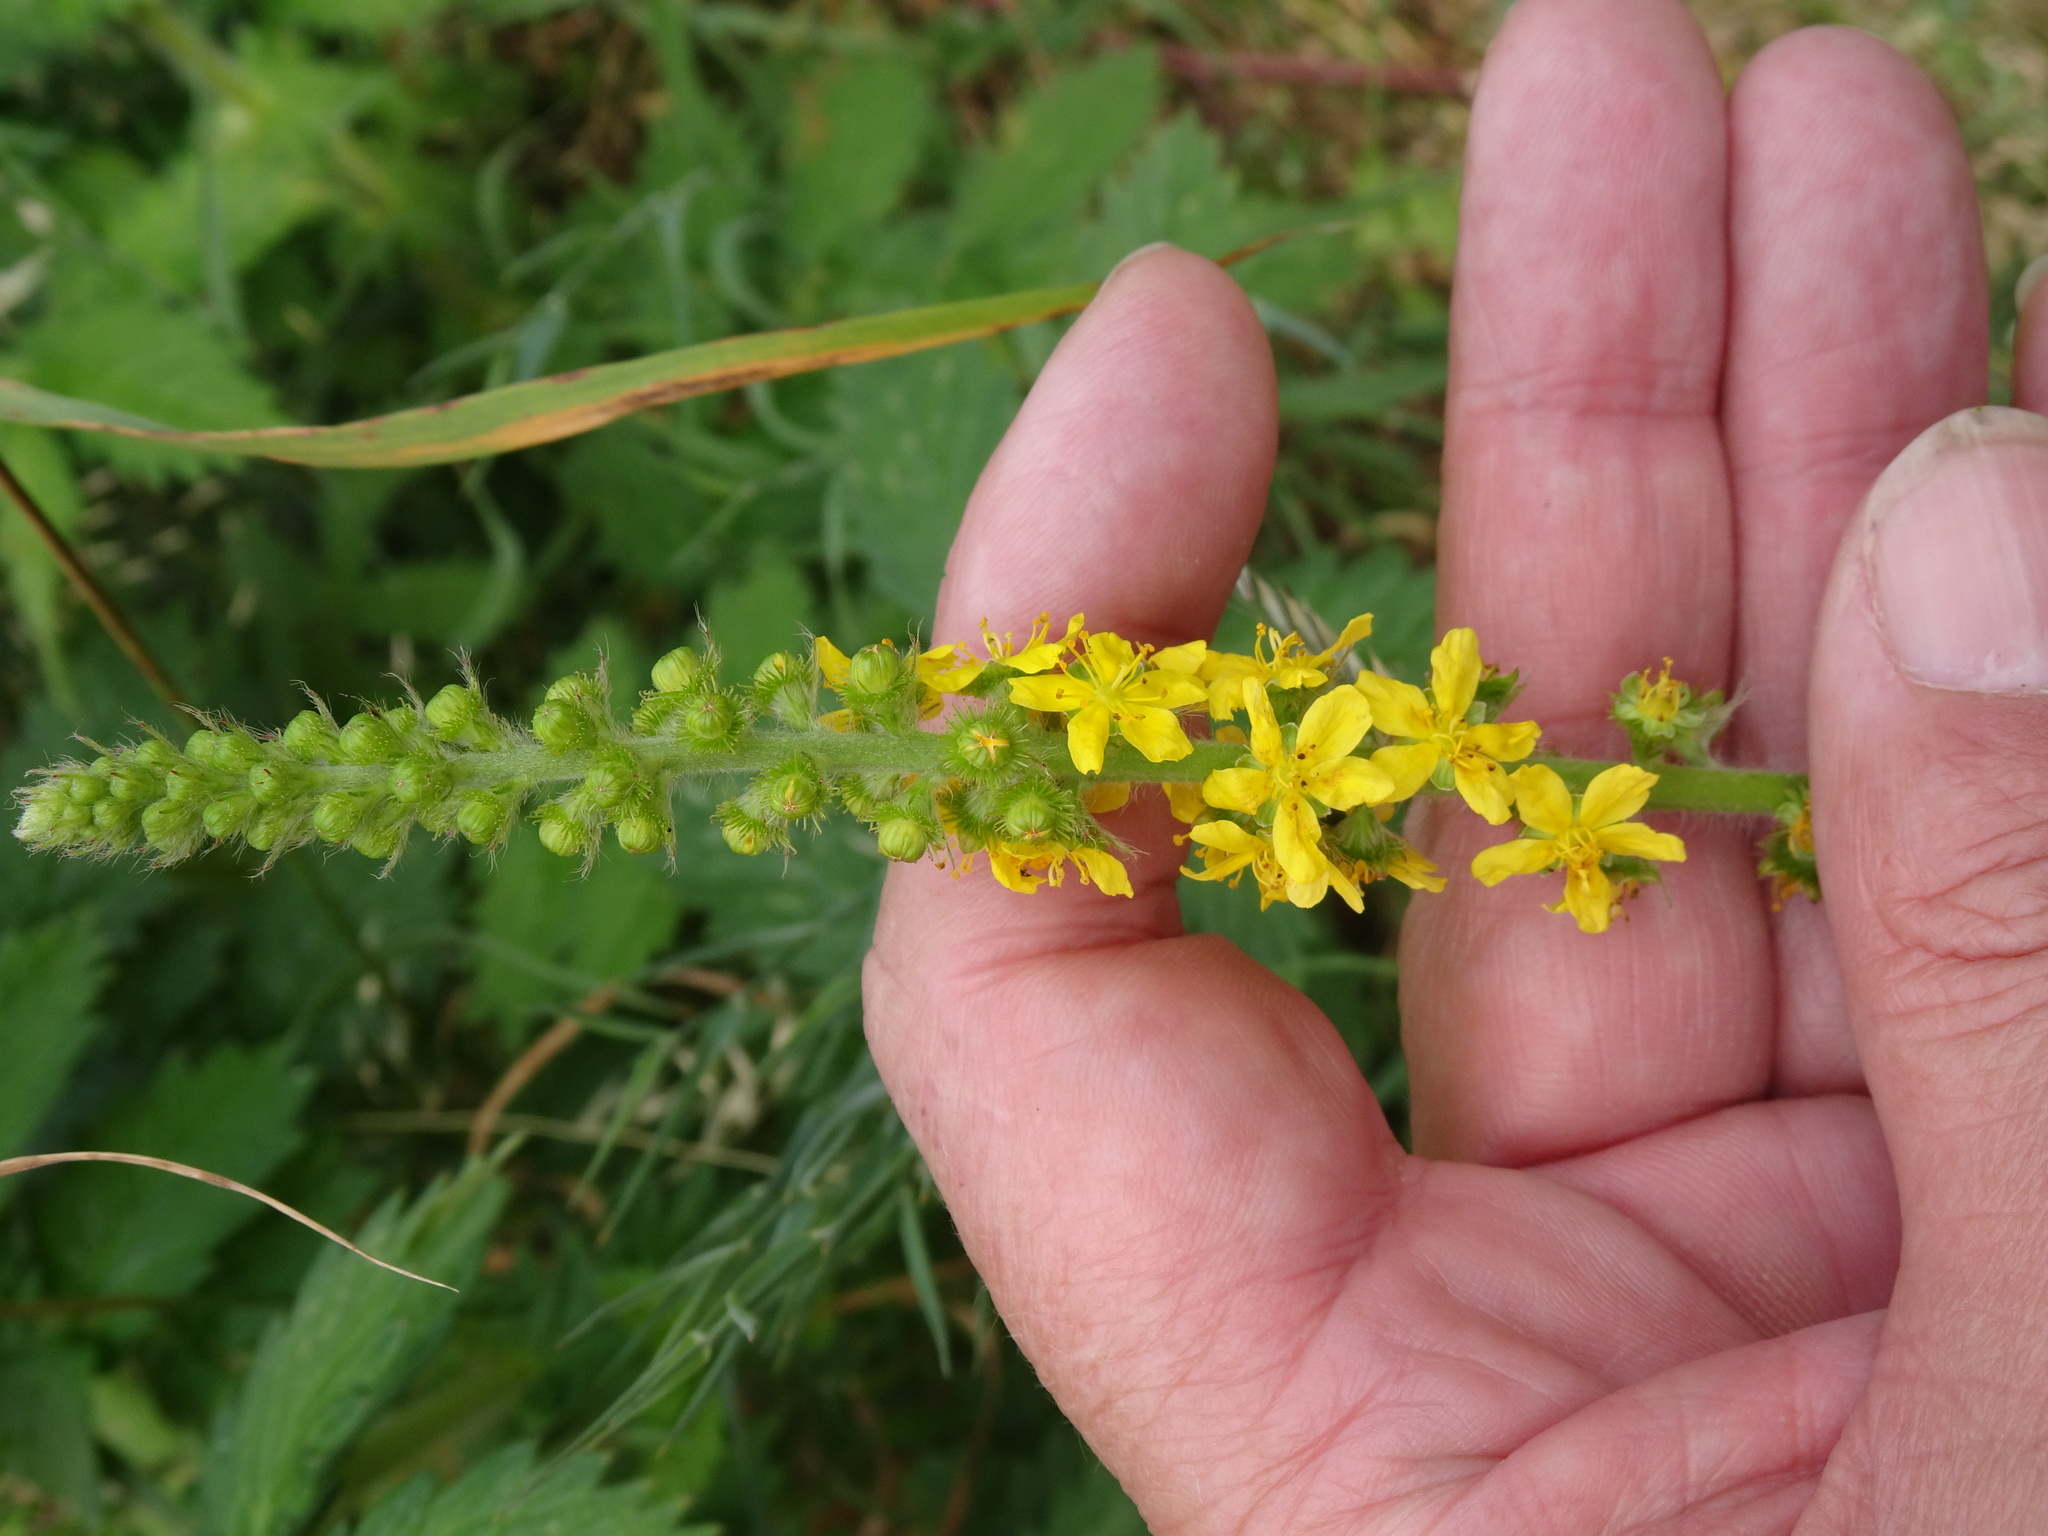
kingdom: Plantae
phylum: Tracheophyta
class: Magnoliopsida
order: Rosales
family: Rosaceae
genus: Agrimonia
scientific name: Agrimonia eupatoria
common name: Agrimony
